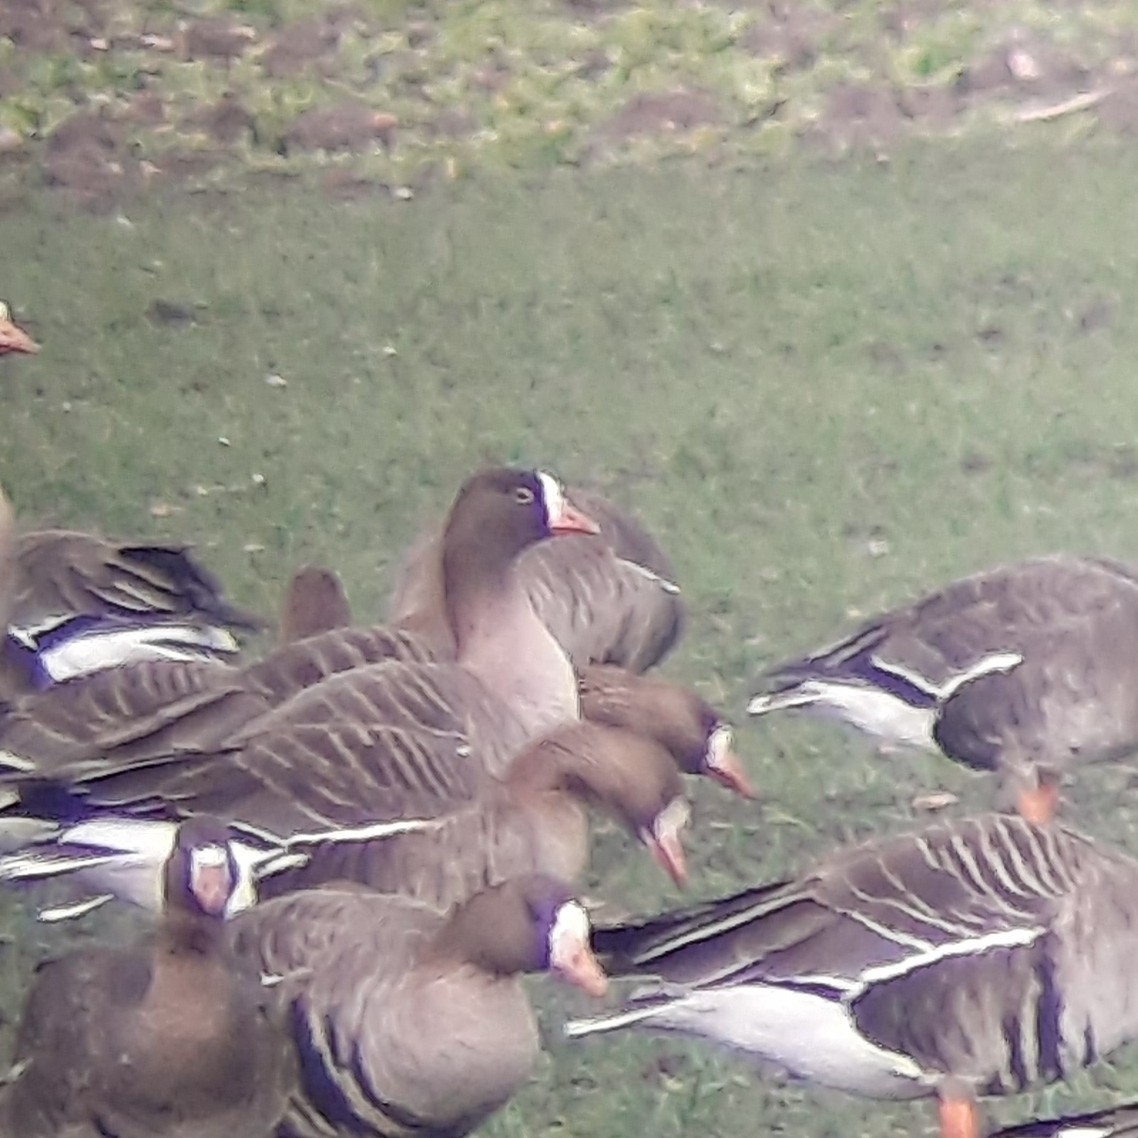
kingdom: Animalia
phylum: Chordata
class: Aves
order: Anseriformes
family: Anatidae
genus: Anser
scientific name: Anser erythropus
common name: Lesser white-fronted goose
